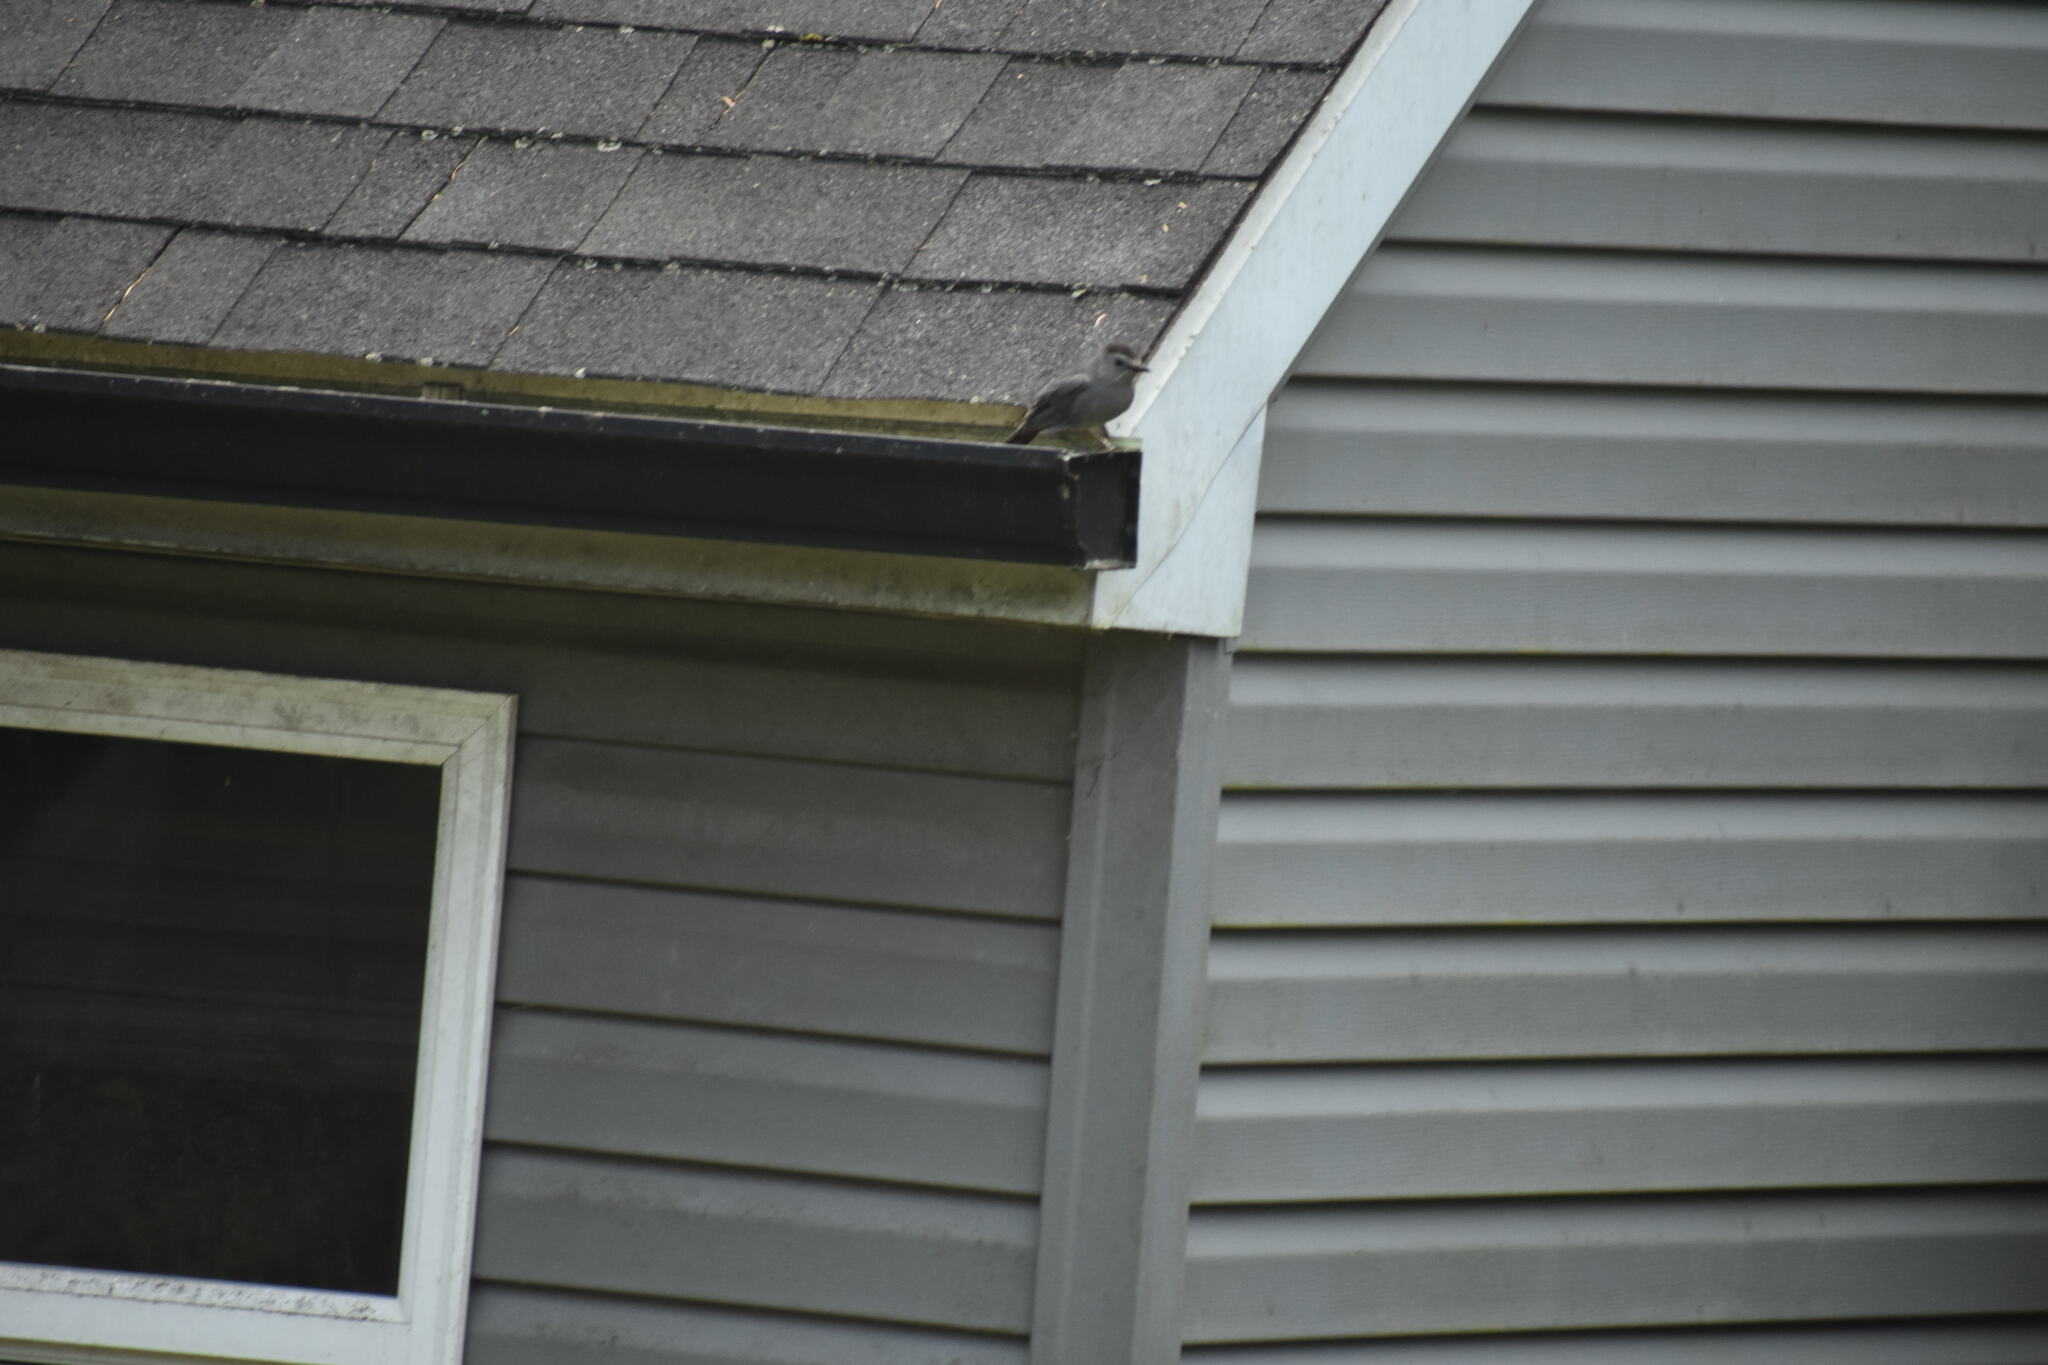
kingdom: Animalia
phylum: Chordata
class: Aves
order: Passeriformes
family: Mimidae
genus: Dumetella
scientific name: Dumetella carolinensis
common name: Gray catbird
